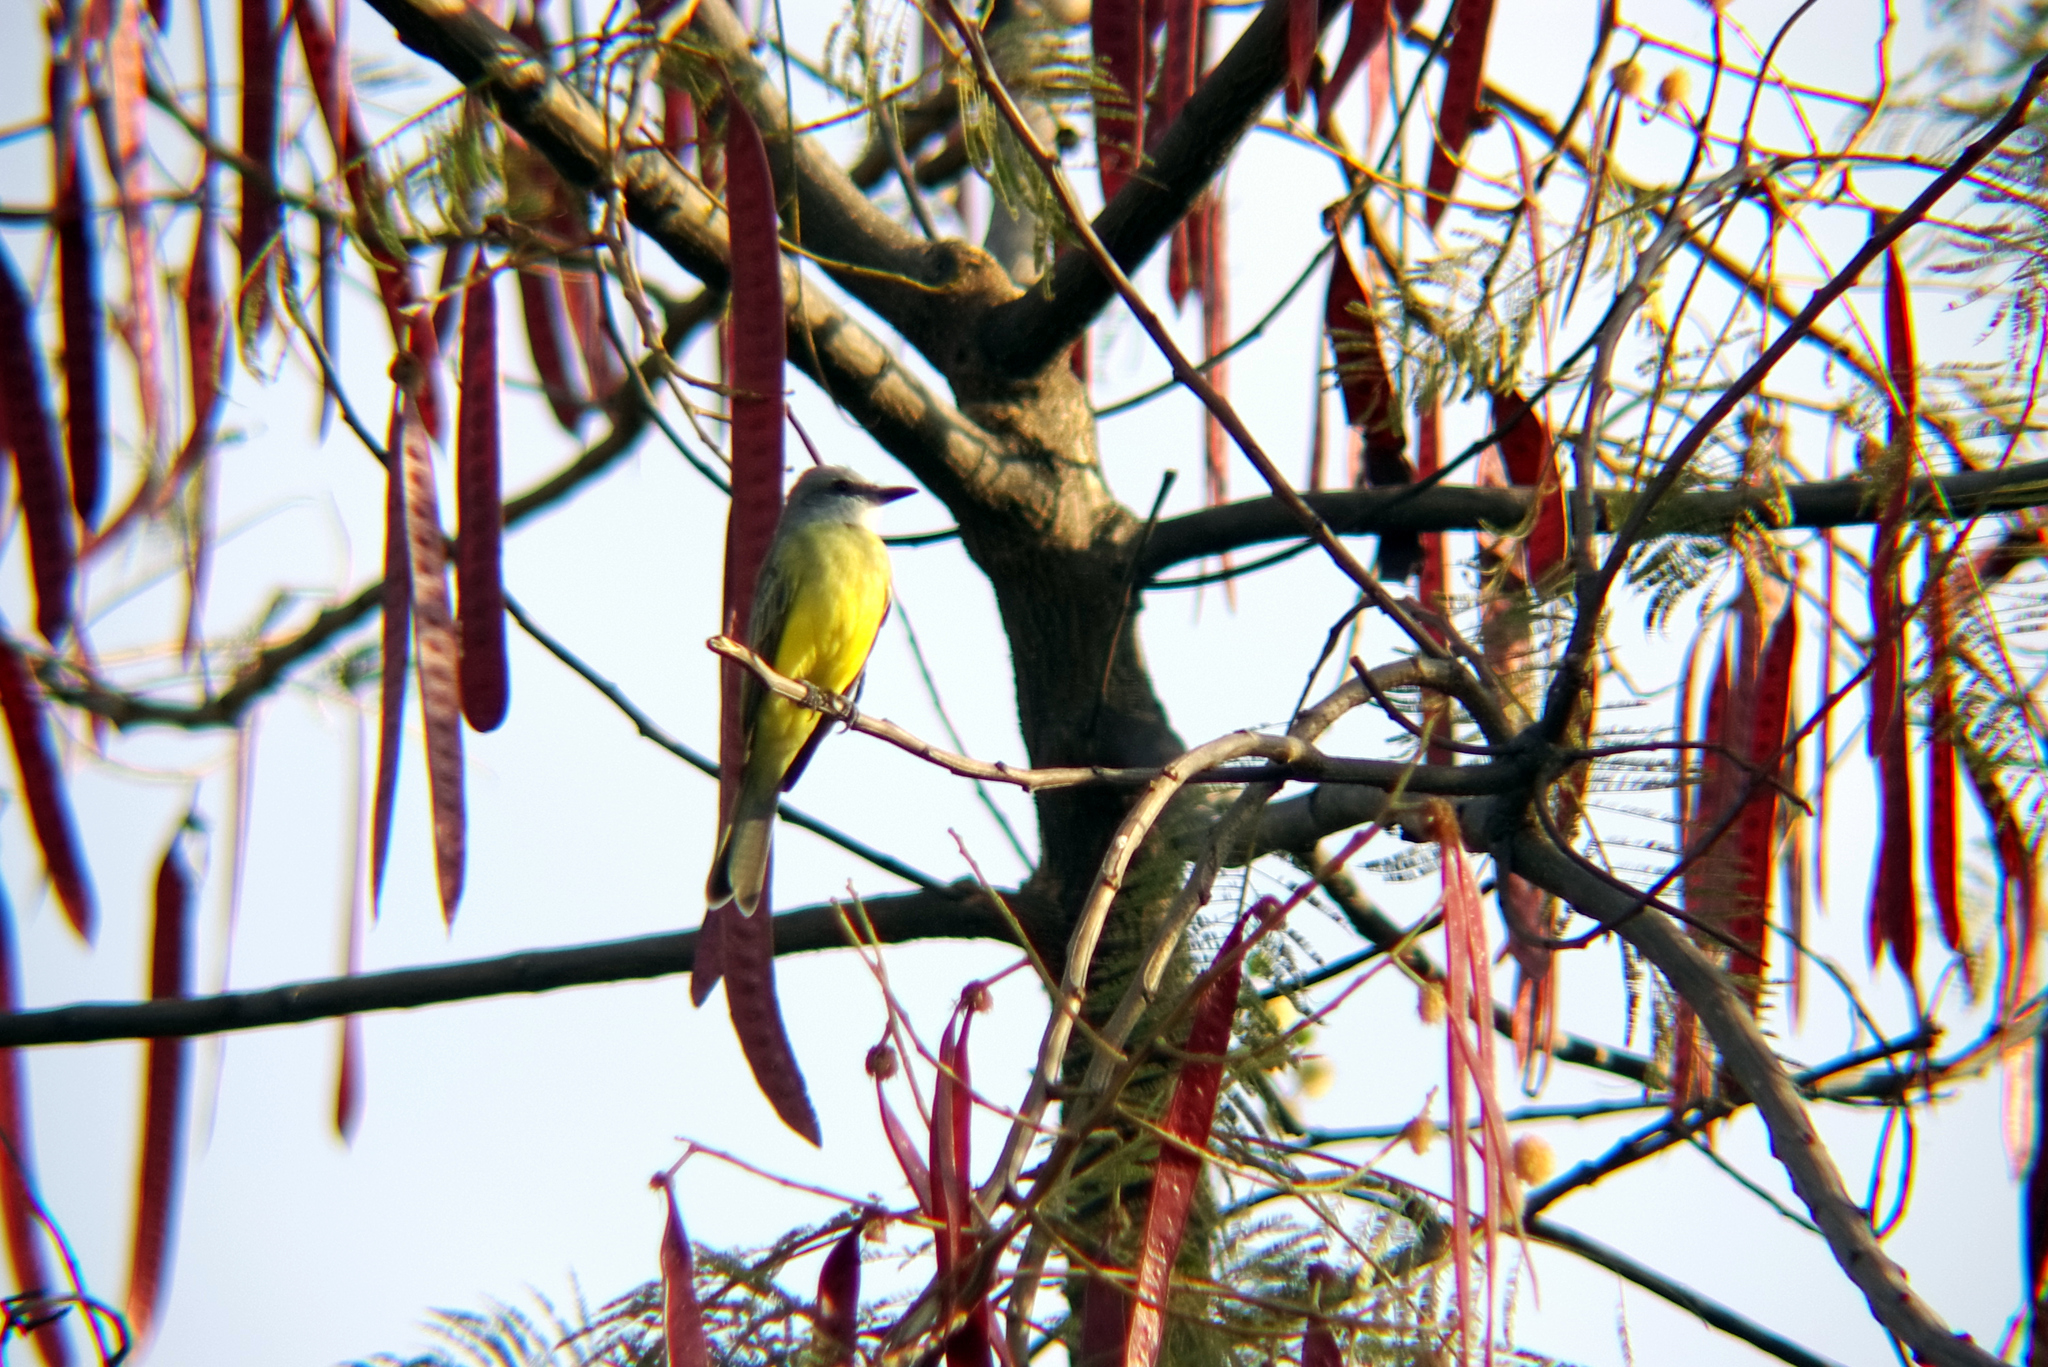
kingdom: Animalia
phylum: Chordata
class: Aves
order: Passeriformes
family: Tyrannidae
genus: Tyrannus
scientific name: Tyrannus melancholicus
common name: Tropical kingbird
